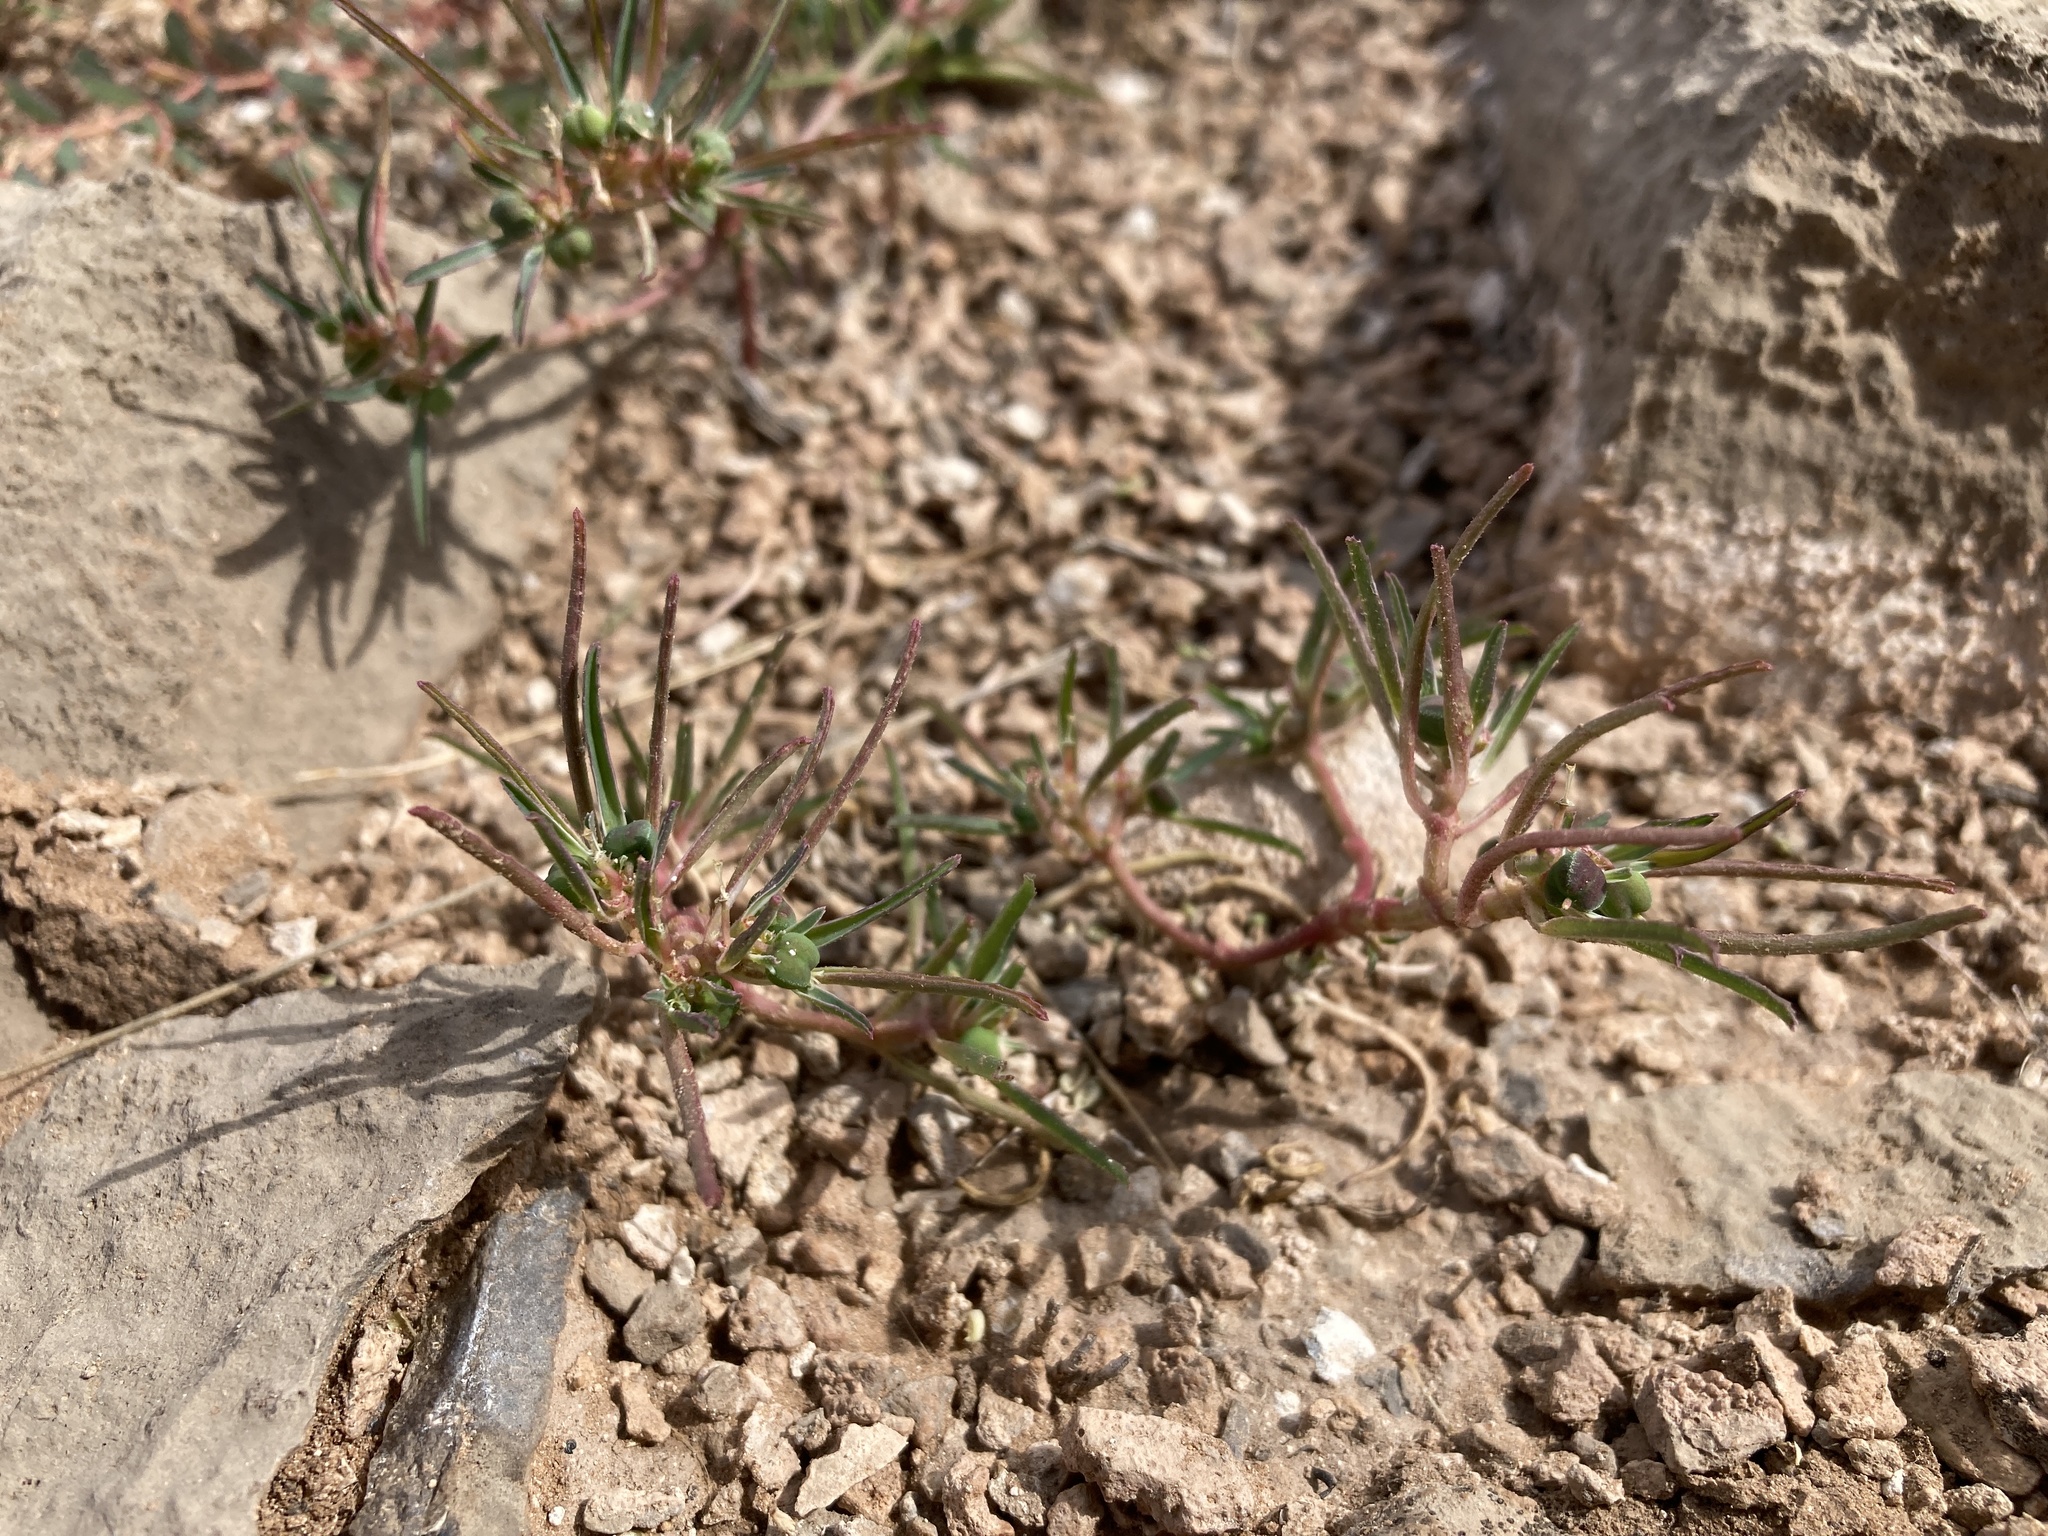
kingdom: Plantae
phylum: Tracheophyta
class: Magnoliopsida
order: Malpighiales
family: Euphorbiaceae
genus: Euphorbia
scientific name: Euphorbia exstipulata
